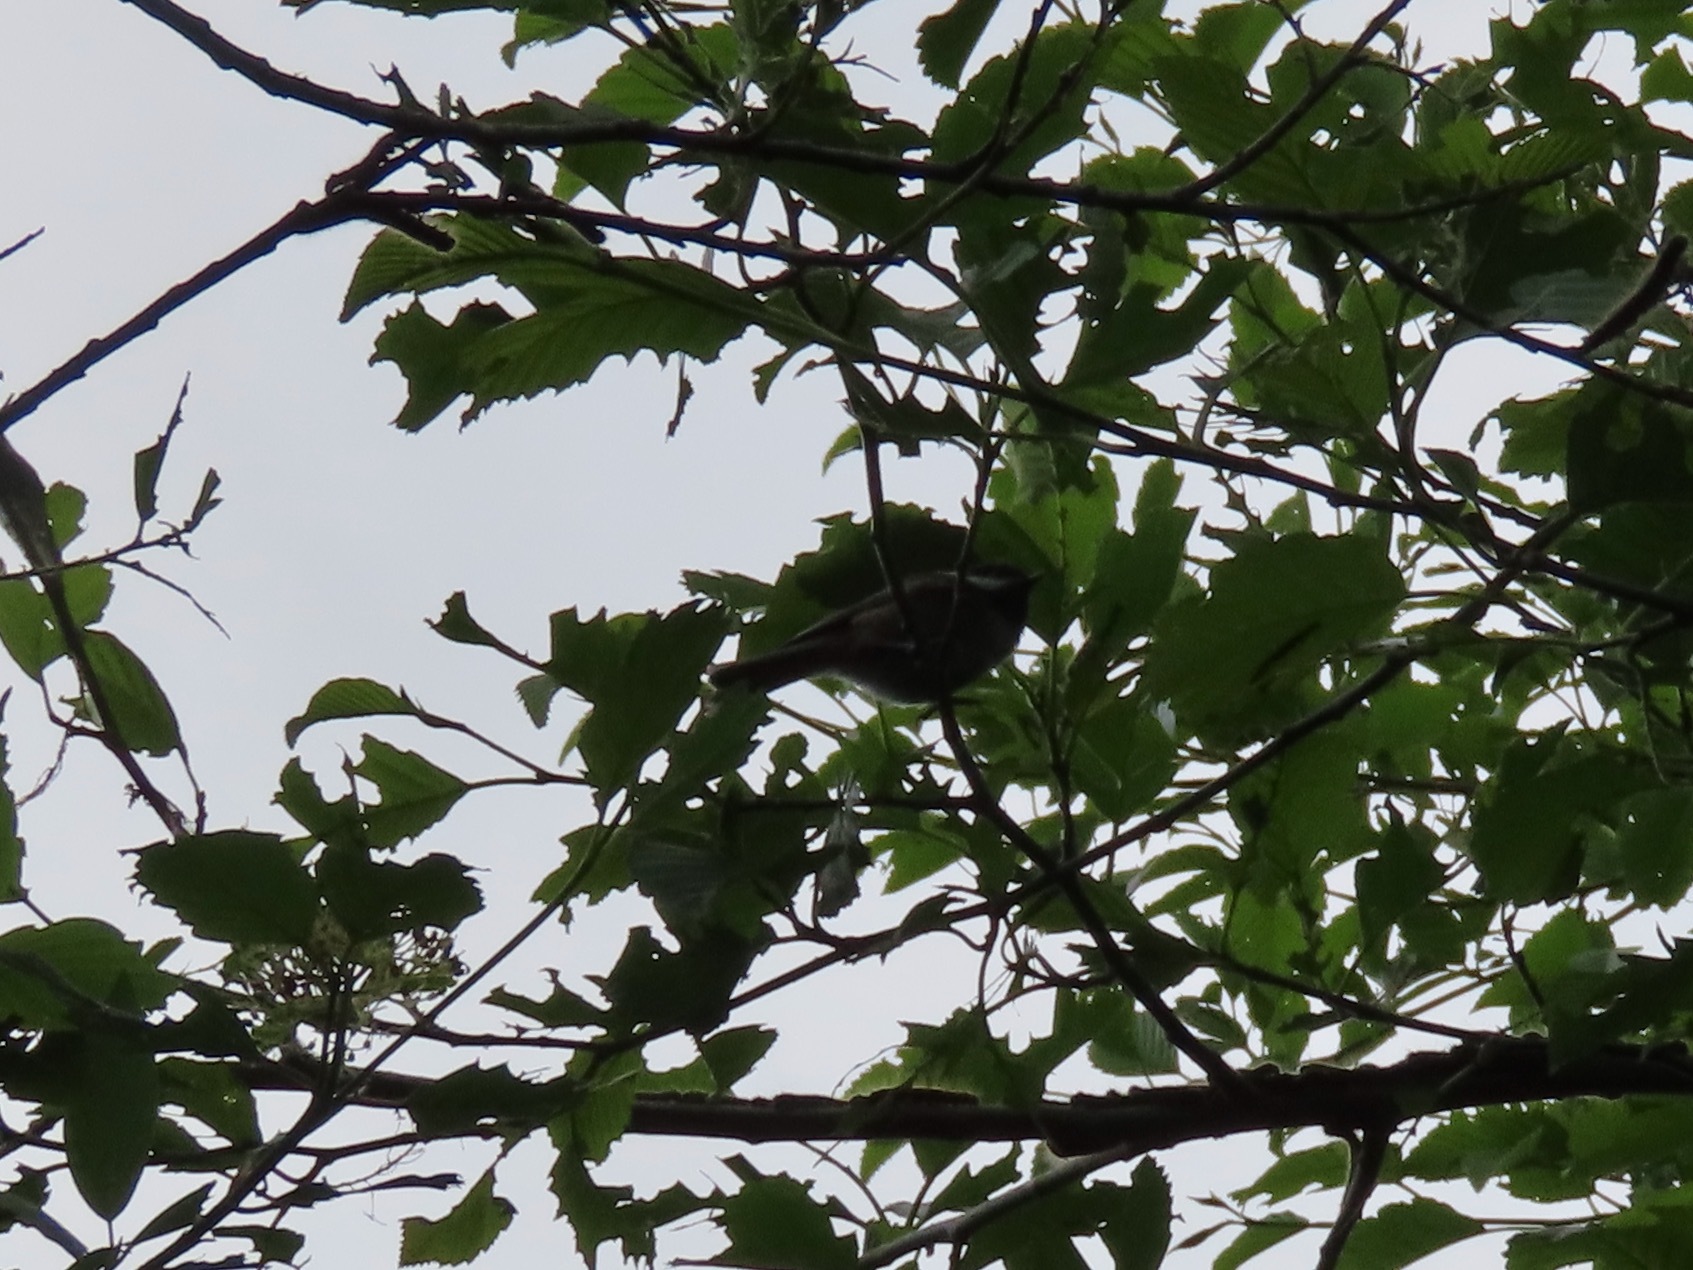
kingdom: Animalia
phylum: Chordata
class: Aves
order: Passeriformes
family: Paridae
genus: Poecile
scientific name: Poecile rufescens
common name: Chestnut-backed chickadee
